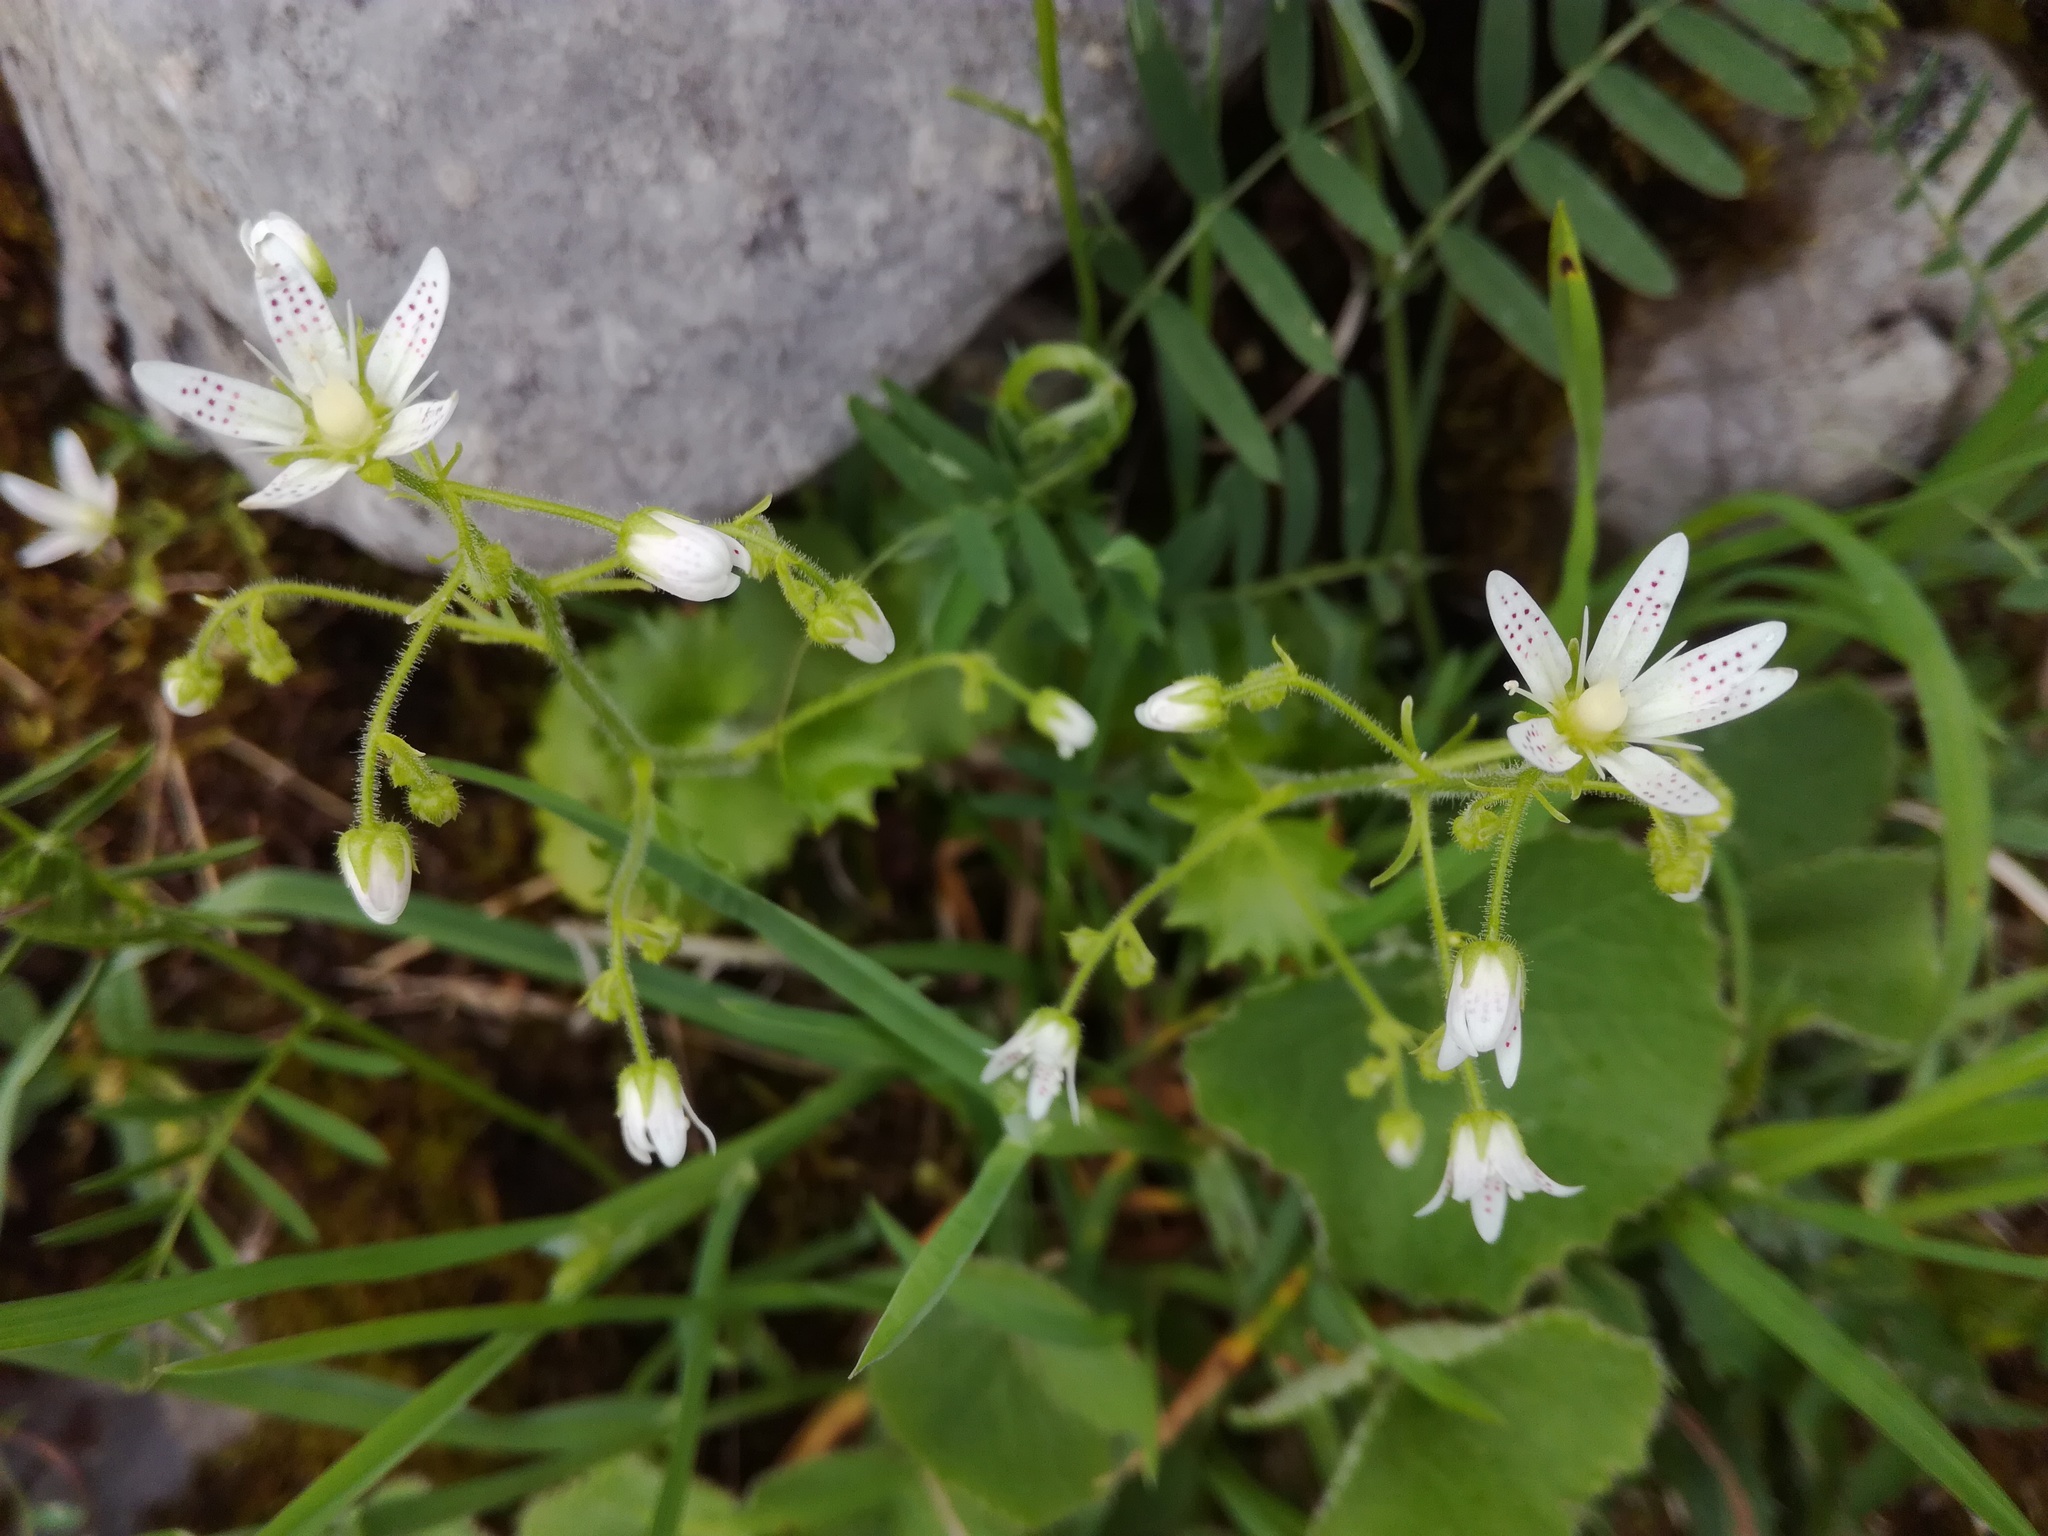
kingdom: Plantae
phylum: Tracheophyta
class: Magnoliopsida
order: Saxifragales
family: Saxifragaceae
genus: Saxifraga
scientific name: Saxifraga rotundifolia
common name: Round-leaved saxifrage
